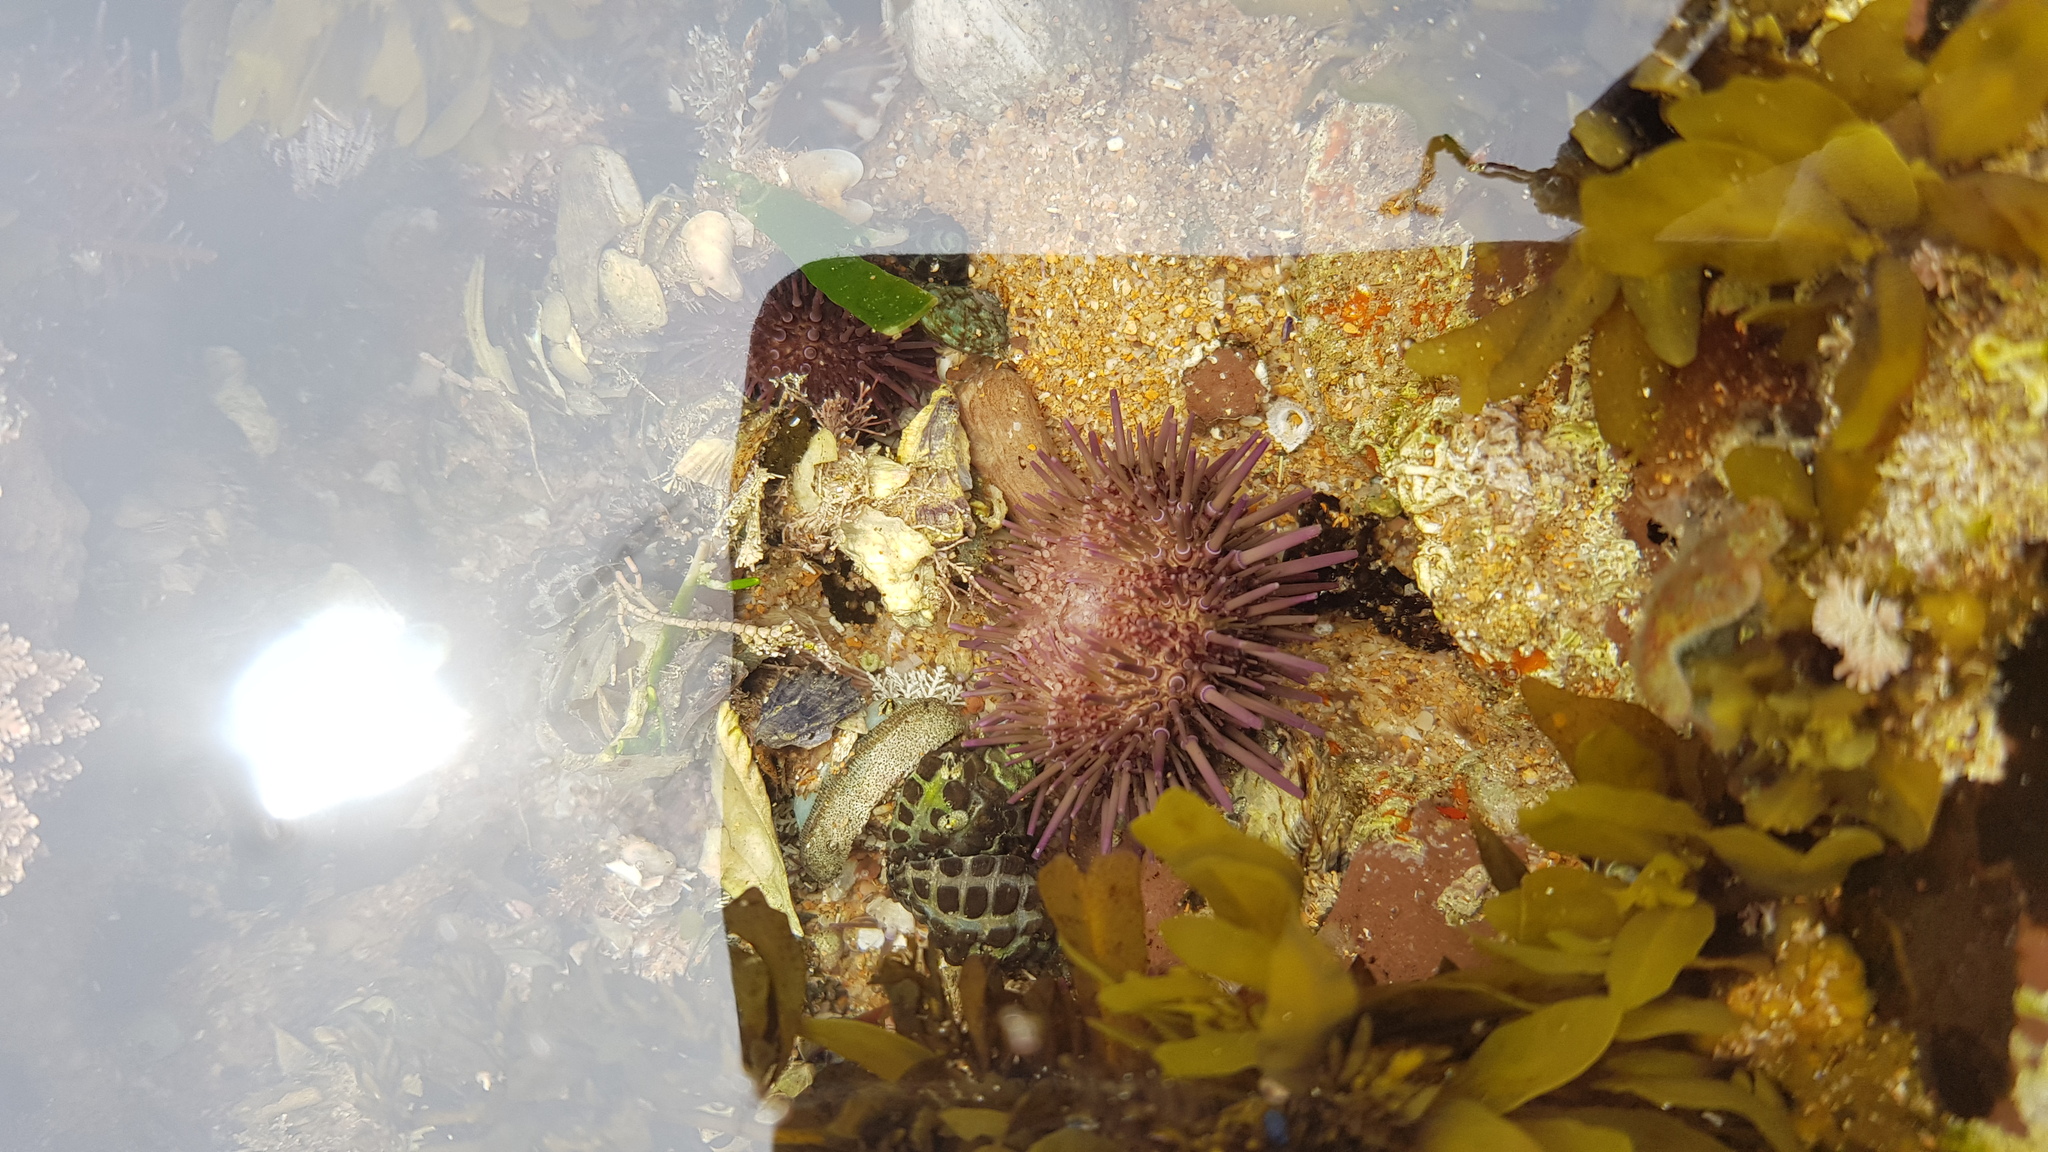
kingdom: Animalia
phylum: Echinodermata
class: Echinoidea
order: Camarodonta
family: Echinometridae
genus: Heliocidaris
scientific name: Heliocidaris erythrogramma
